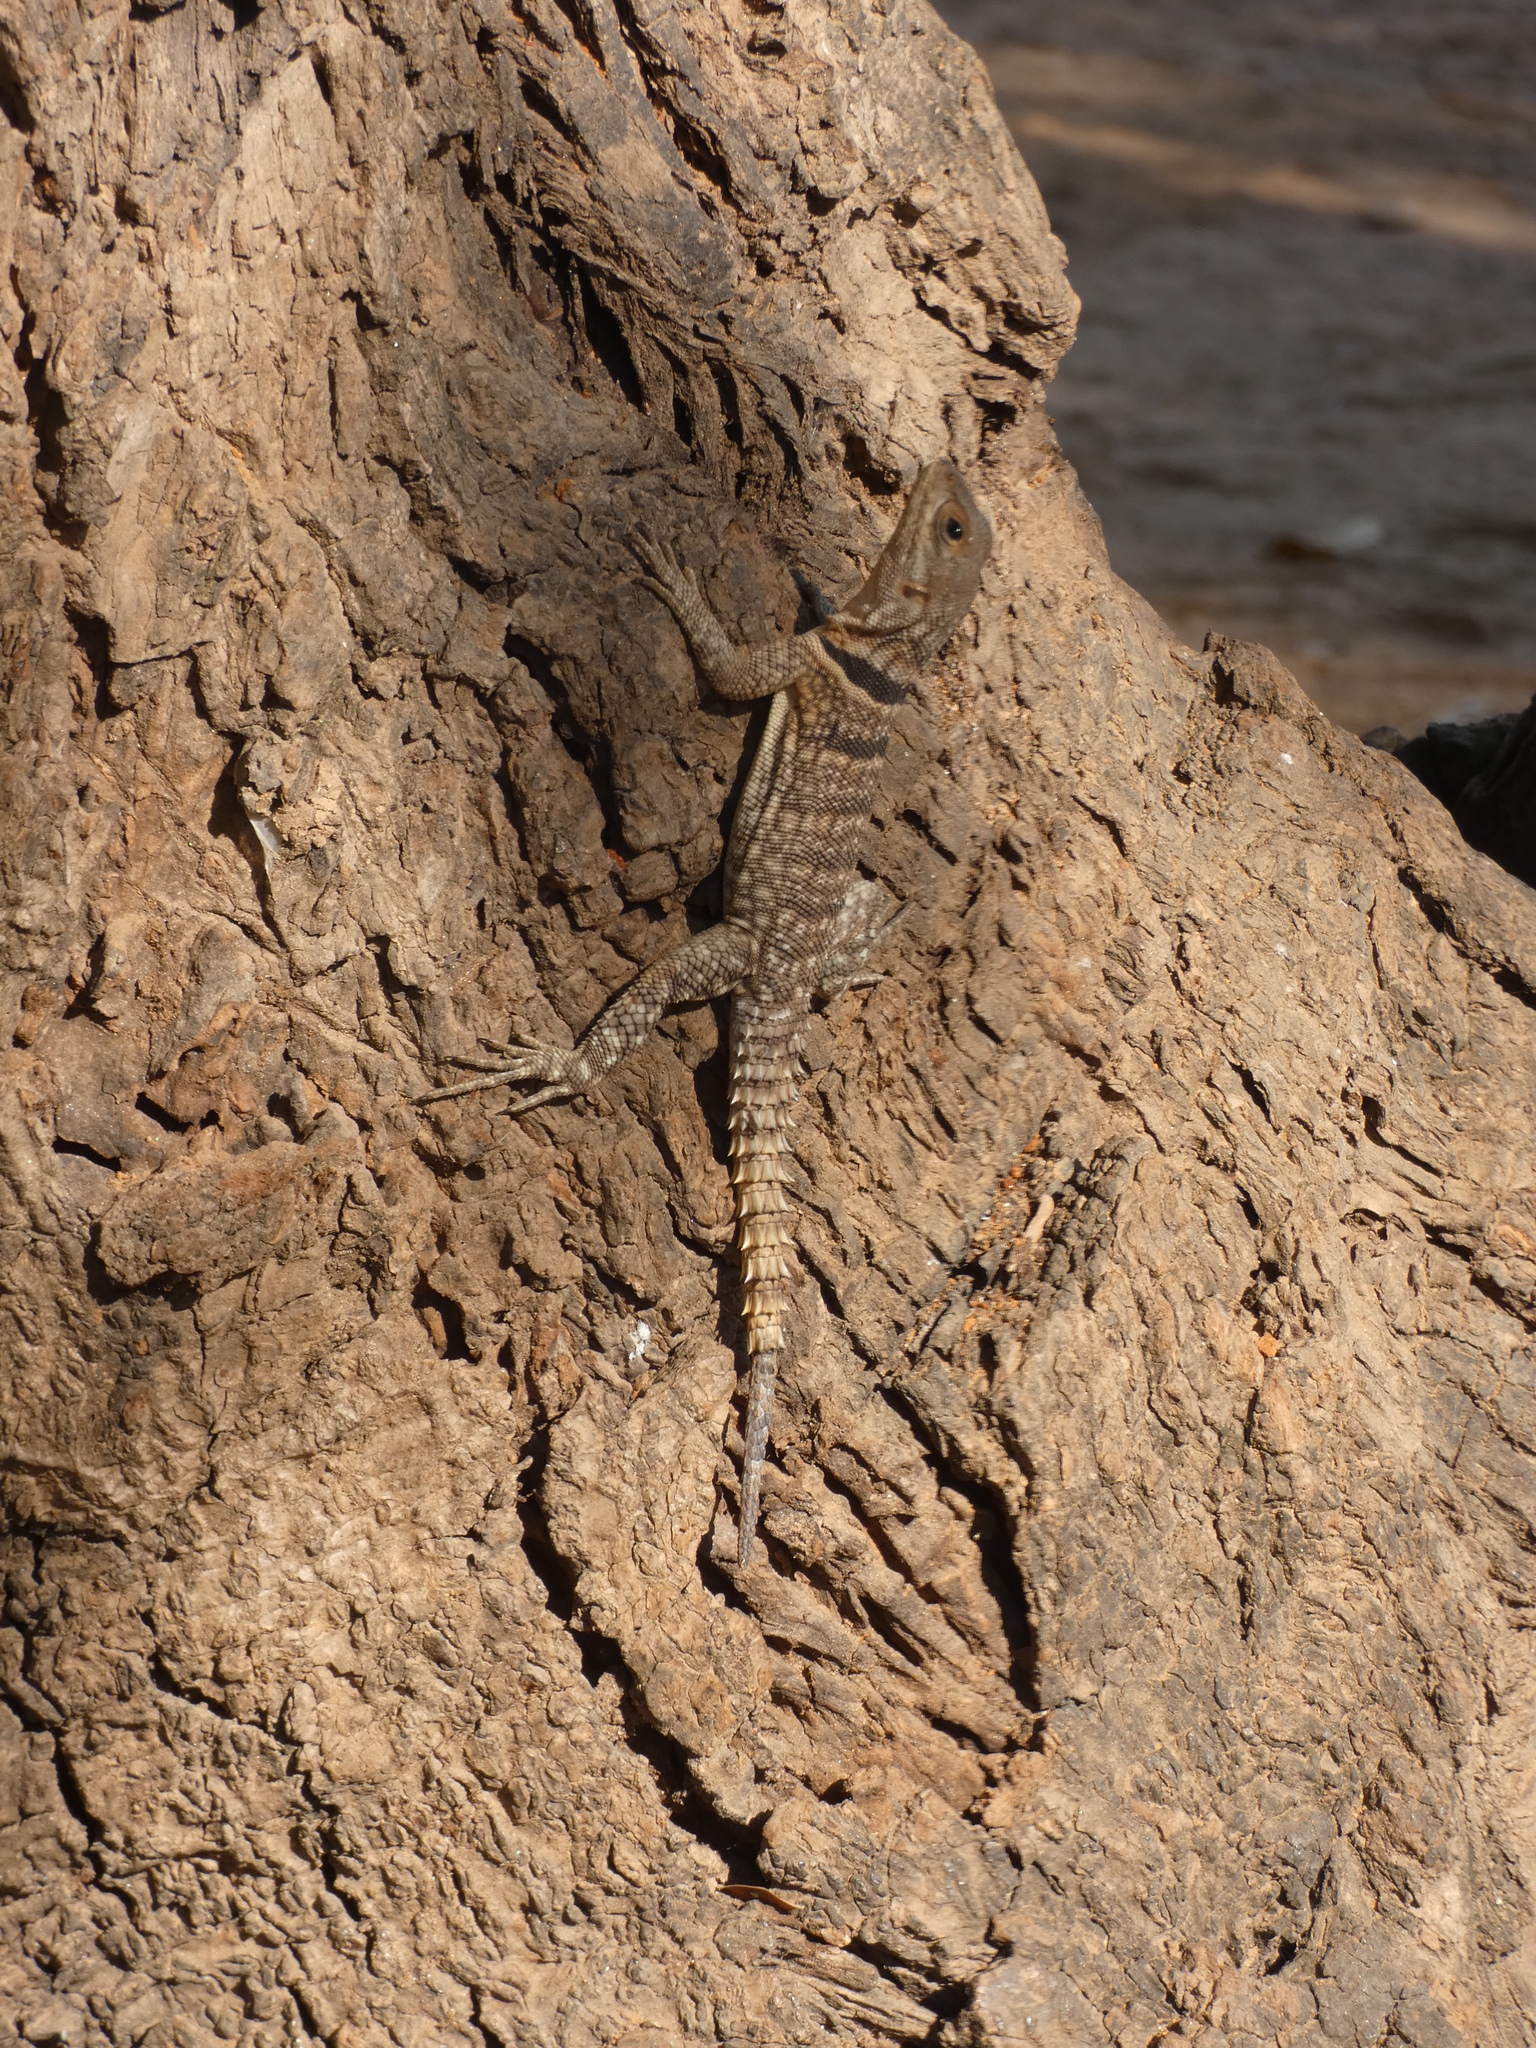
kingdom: Animalia
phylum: Chordata
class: Squamata
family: Opluridae
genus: Oplurus
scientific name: Oplurus cuvieri
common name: Cuvier's madagascar swift
